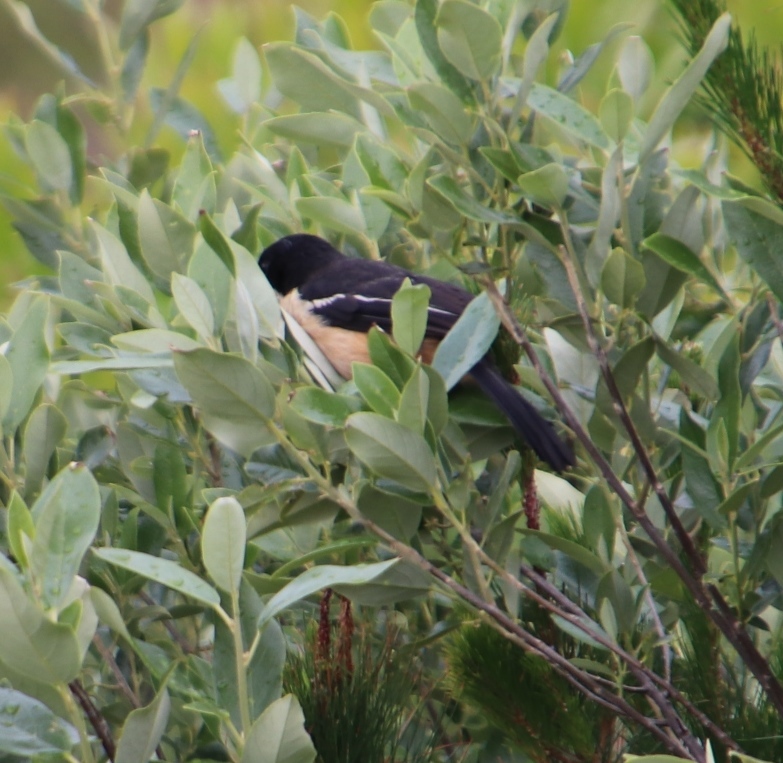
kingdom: Animalia
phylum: Chordata
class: Aves
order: Passeriformes
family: Malaconotidae
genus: Laniarius
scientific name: Laniarius ferrugineus
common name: Southern boubou
